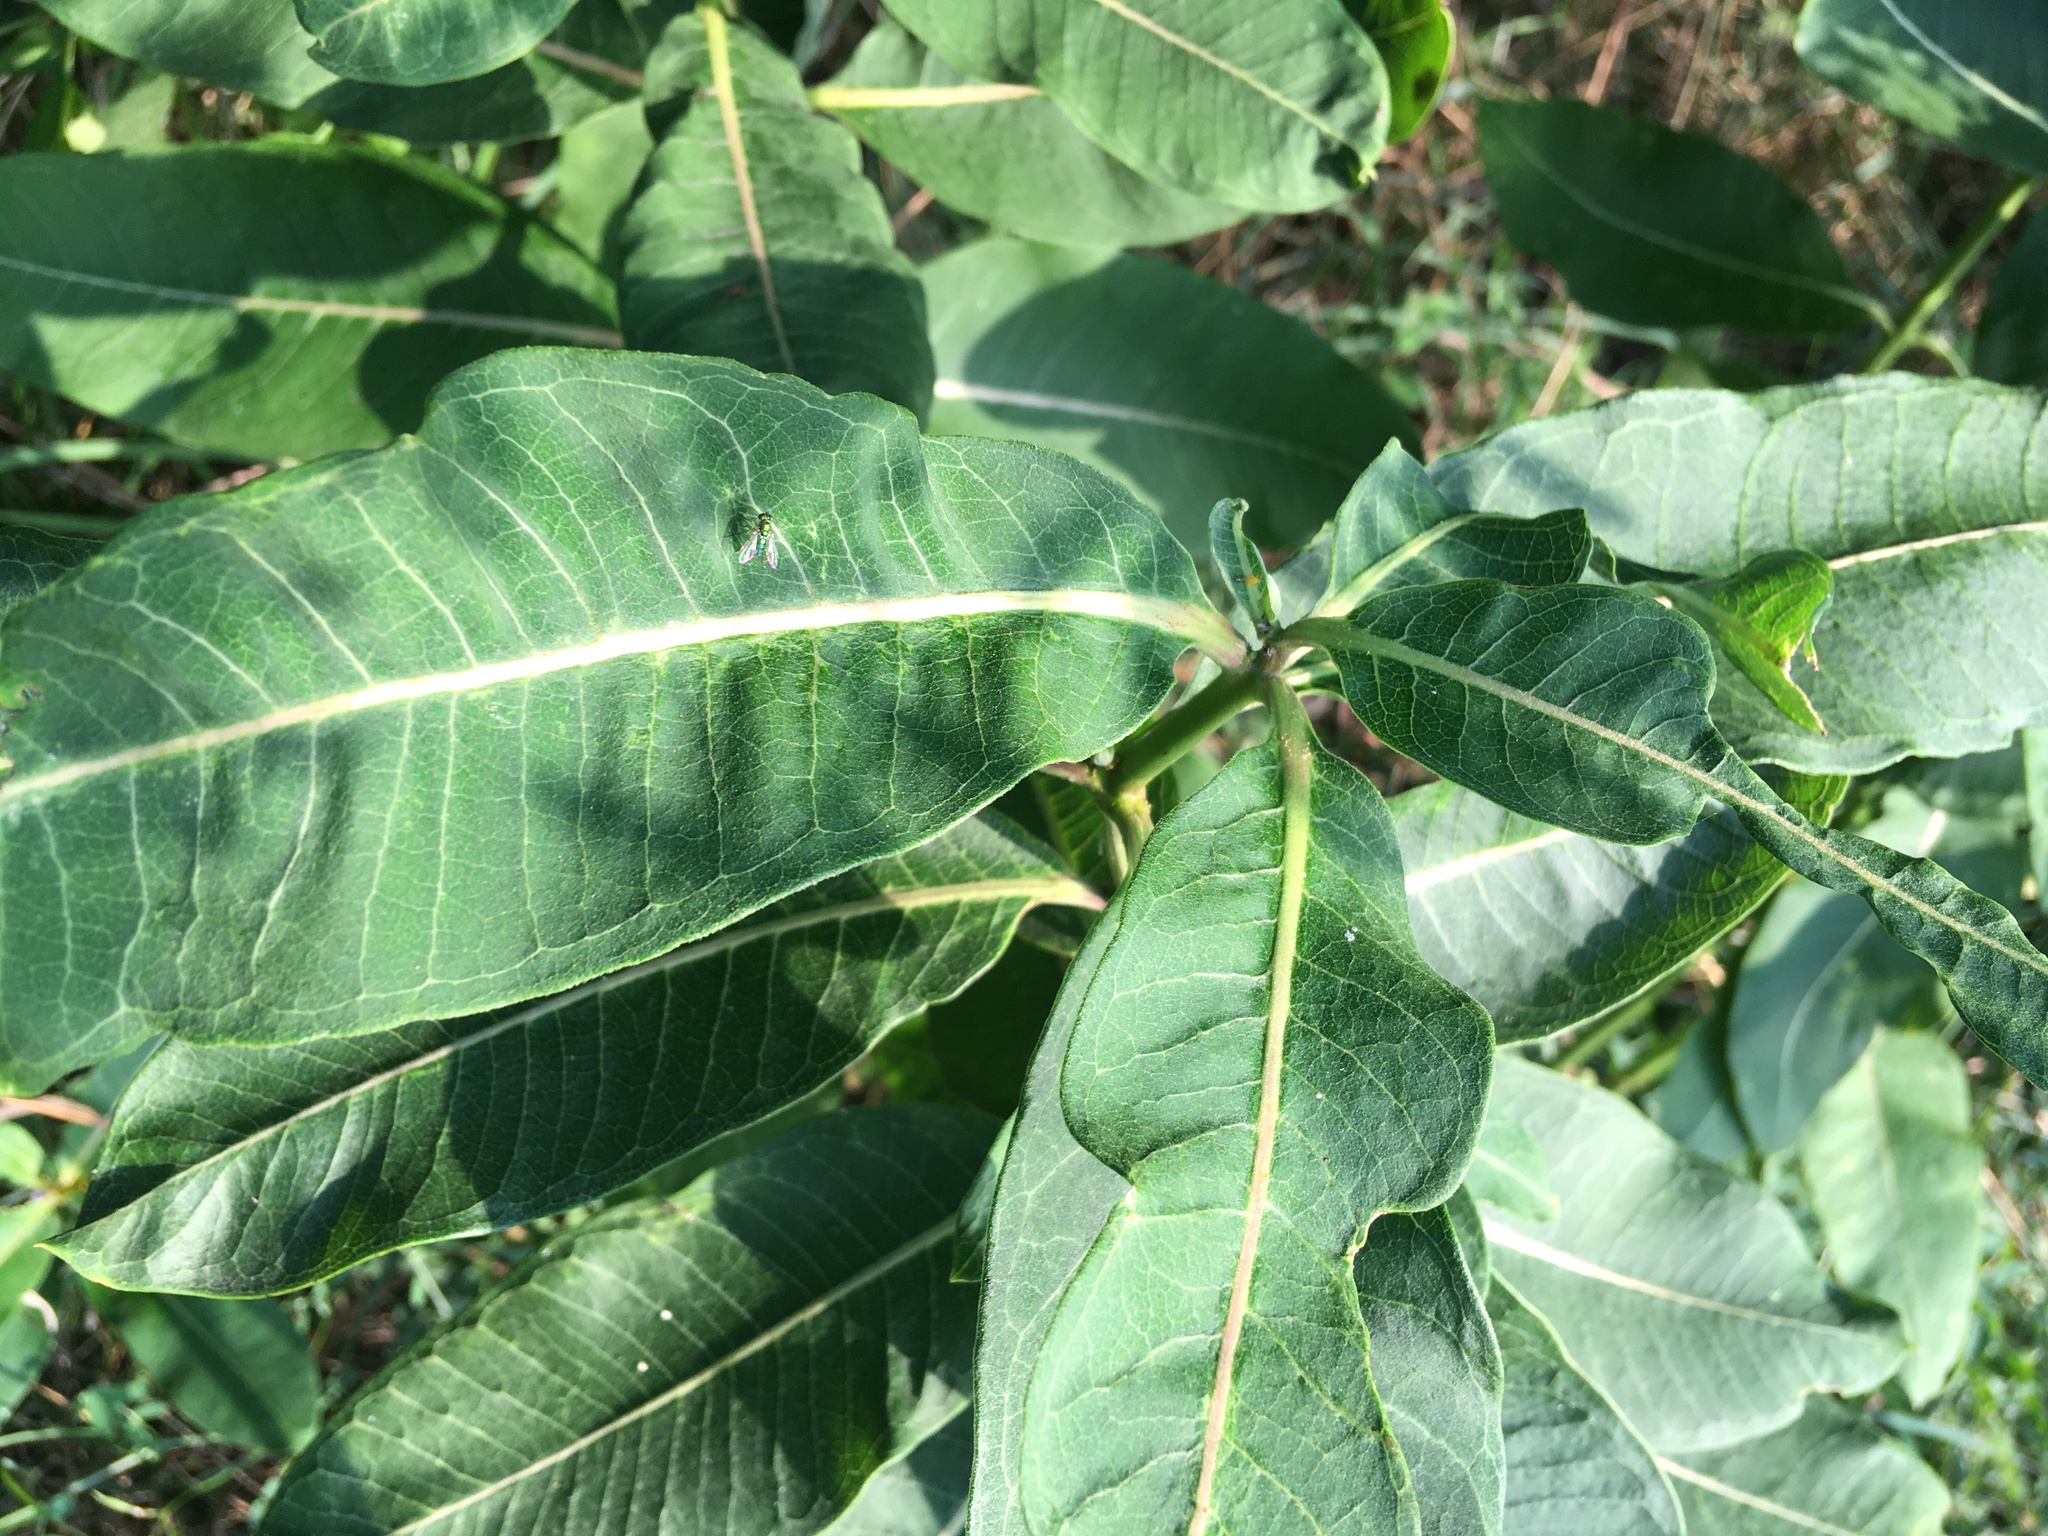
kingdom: Plantae
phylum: Tracheophyta
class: Magnoliopsida
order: Gentianales
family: Apocynaceae
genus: Asclepias
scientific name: Asclepias syriaca
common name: Common milkweed
